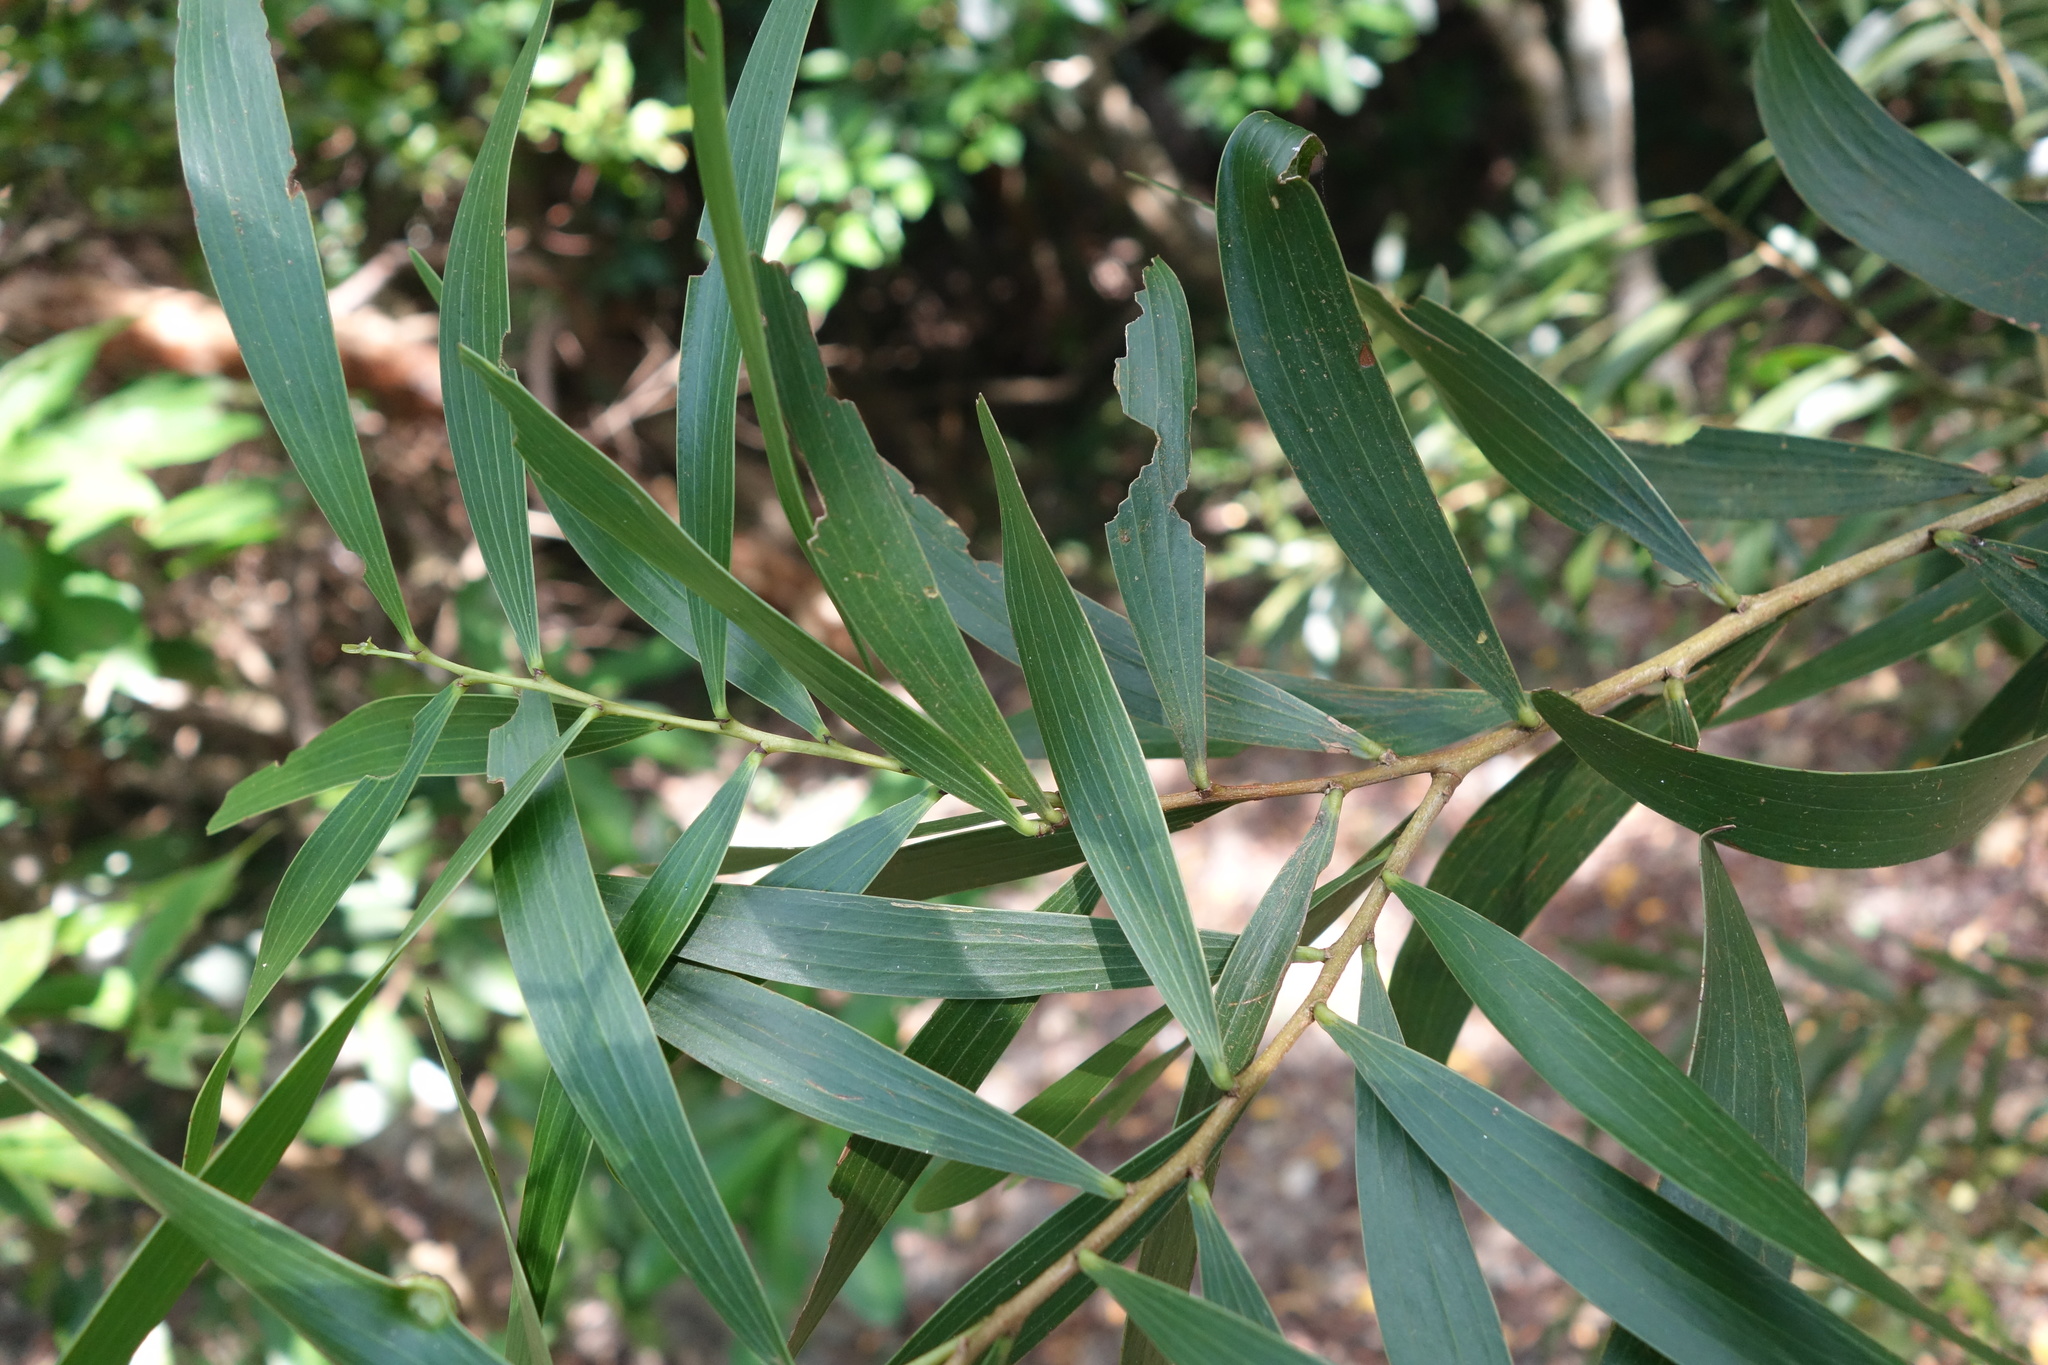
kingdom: Plantae
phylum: Tracheophyta
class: Magnoliopsida
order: Fabales
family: Fabaceae
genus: Acacia
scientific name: Acacia confusa
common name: Formosan koa
